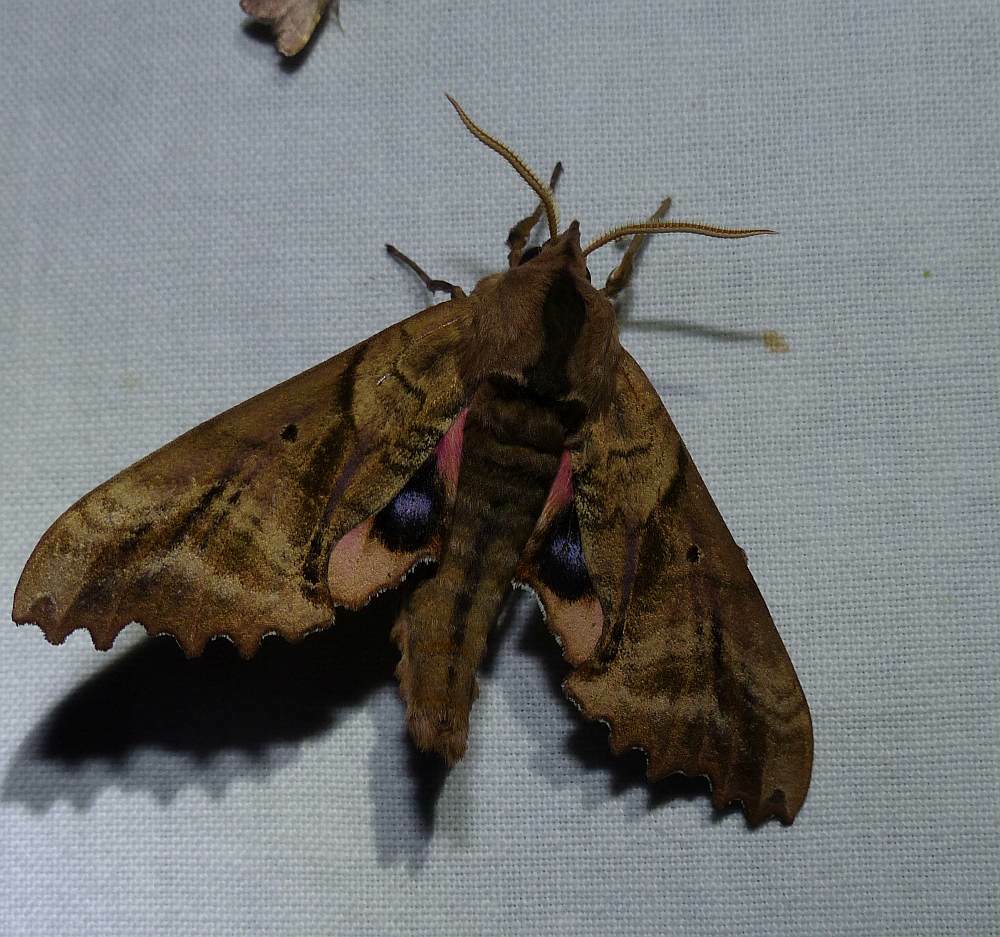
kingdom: Animalia
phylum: Arthropoda
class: Insecta
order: Lepidoptera
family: Sphingidae
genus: Paonias
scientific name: Paonias excaecata
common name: Blind-eyed sphinx
